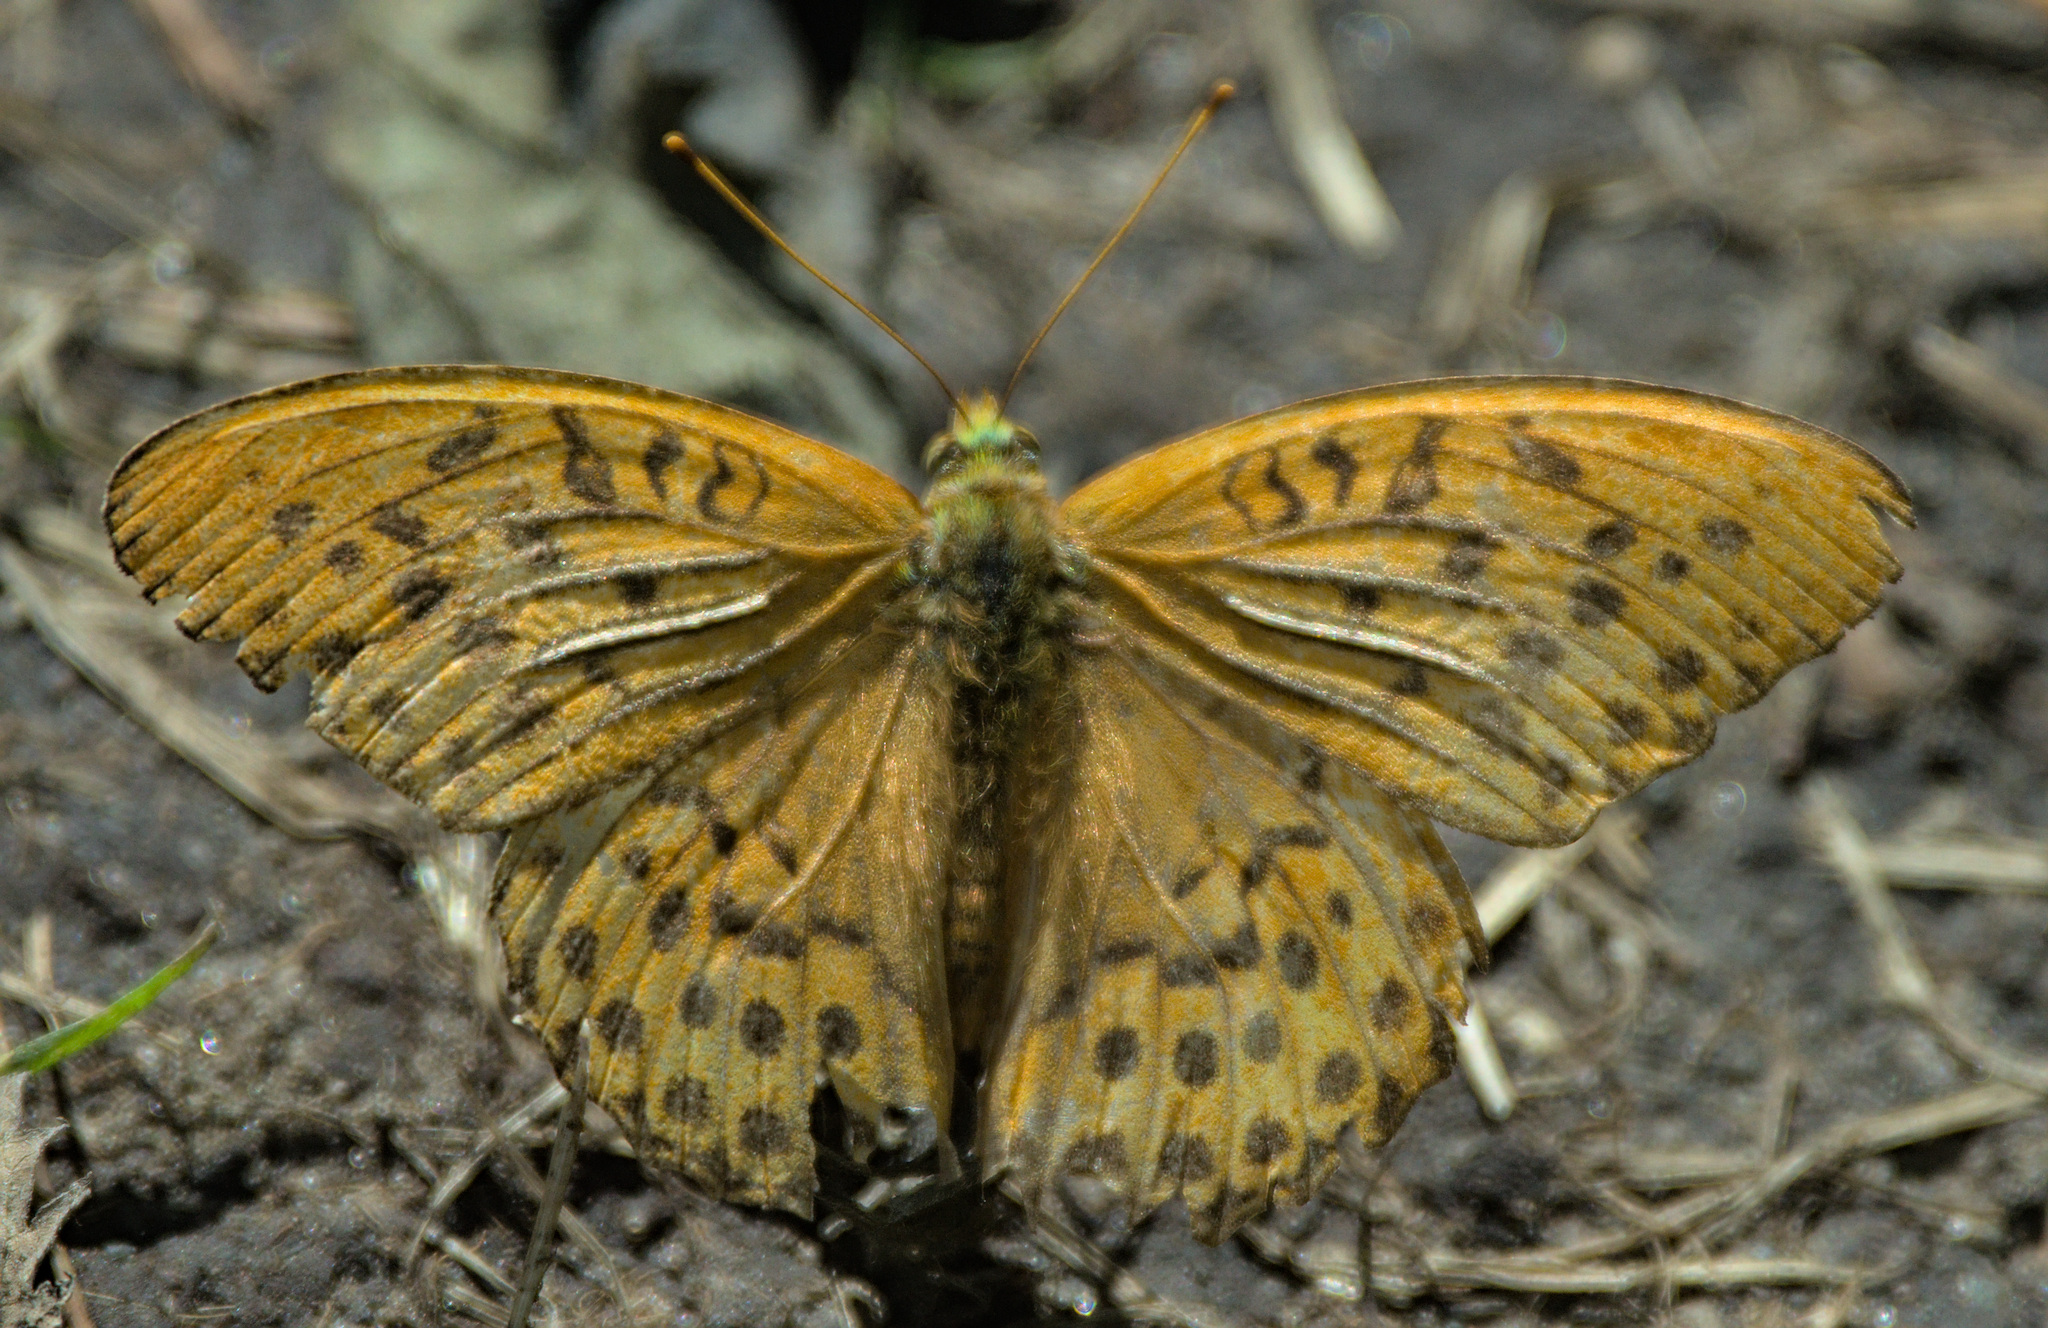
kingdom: Animalia
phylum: Arthropoda
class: Insecta
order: Lepidoptera
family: Nymphalidae
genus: Argynnis
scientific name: Argynnis paphia
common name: Silver-washed fritillary
